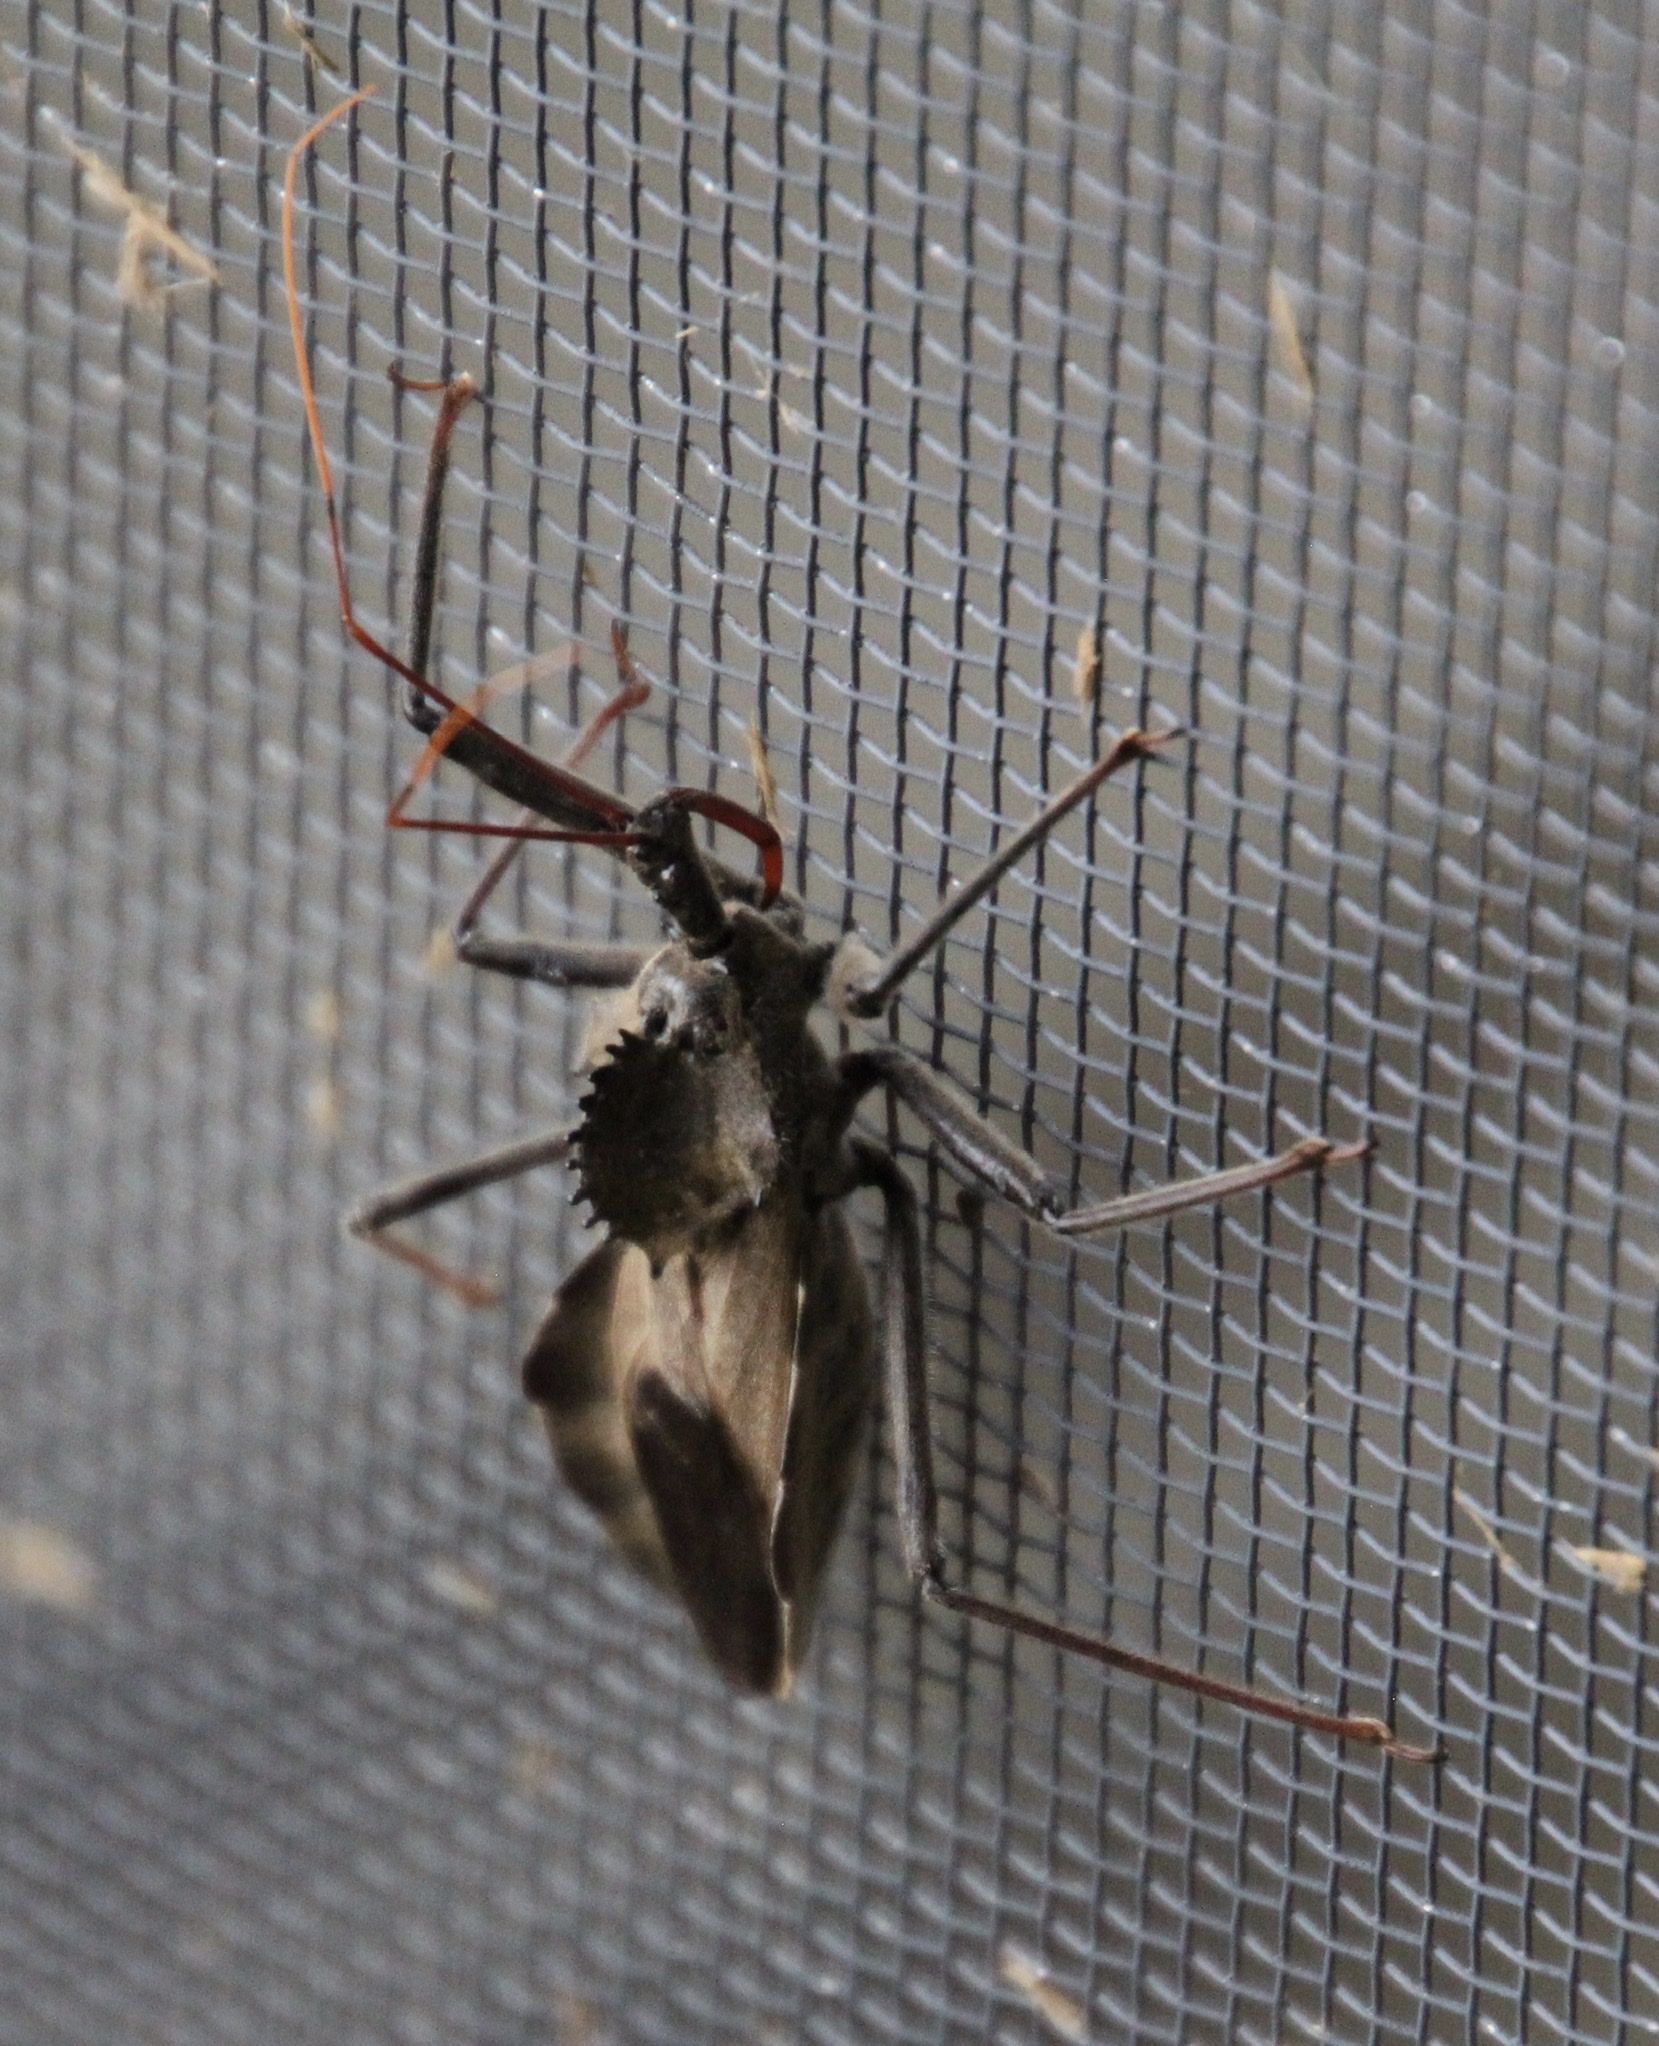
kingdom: Animalia
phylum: Arthropoda
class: Insecta
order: Hemiptera
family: Reduviidae
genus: Arilus
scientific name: Arilus cristatus
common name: North american wheel bug
